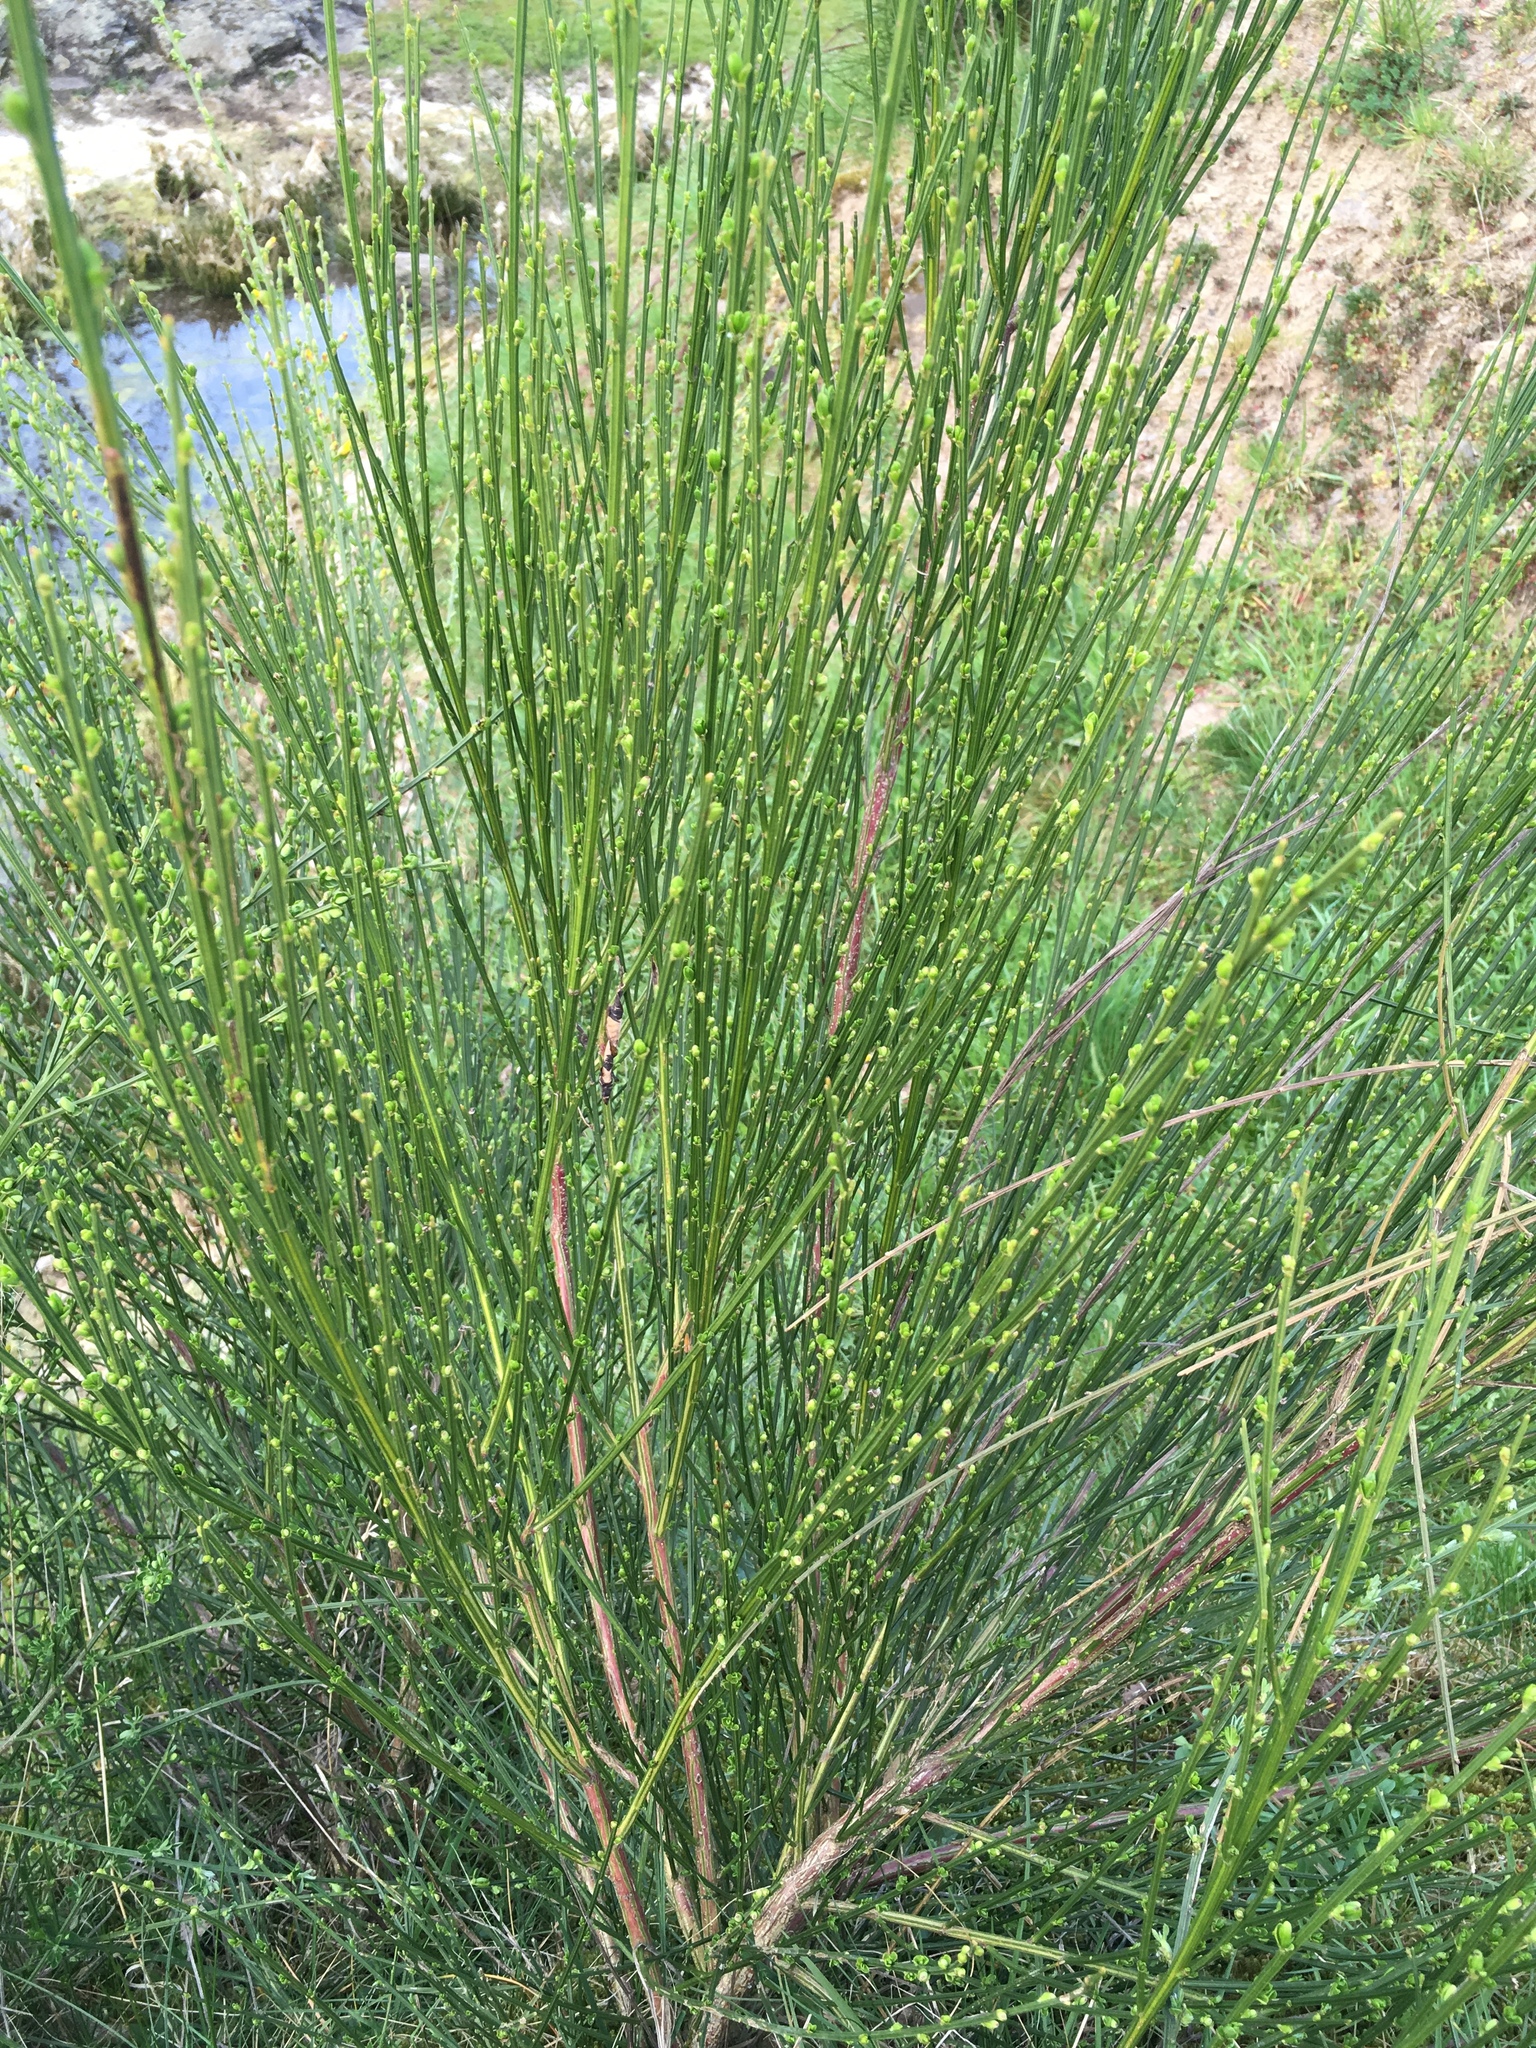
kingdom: Plantae
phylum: Tracheophyta
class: Magnoliopsida
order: Fabales
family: Fabaceae
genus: Cytisus
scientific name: Cytisus scoparius
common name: Scotch broom
